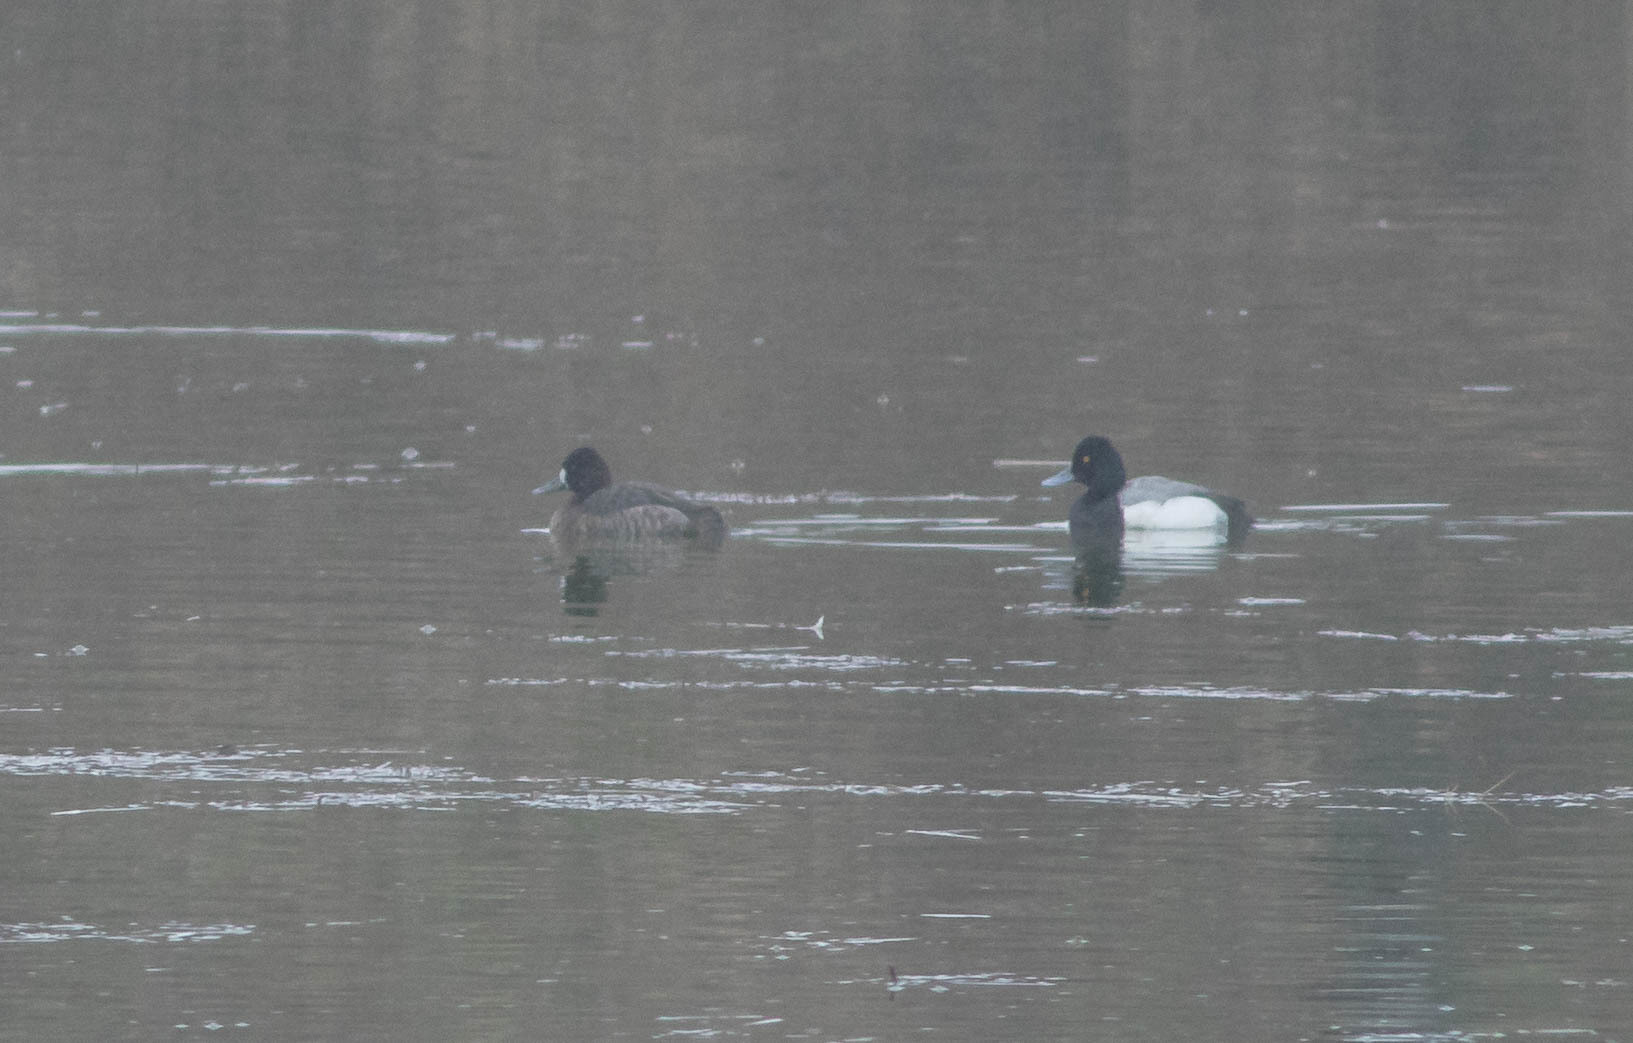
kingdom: Animalia
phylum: Chordata
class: Aves
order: Anseriformes
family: Anatidae
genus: Aythya
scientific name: Aythya affinis
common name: Lesser scaup
